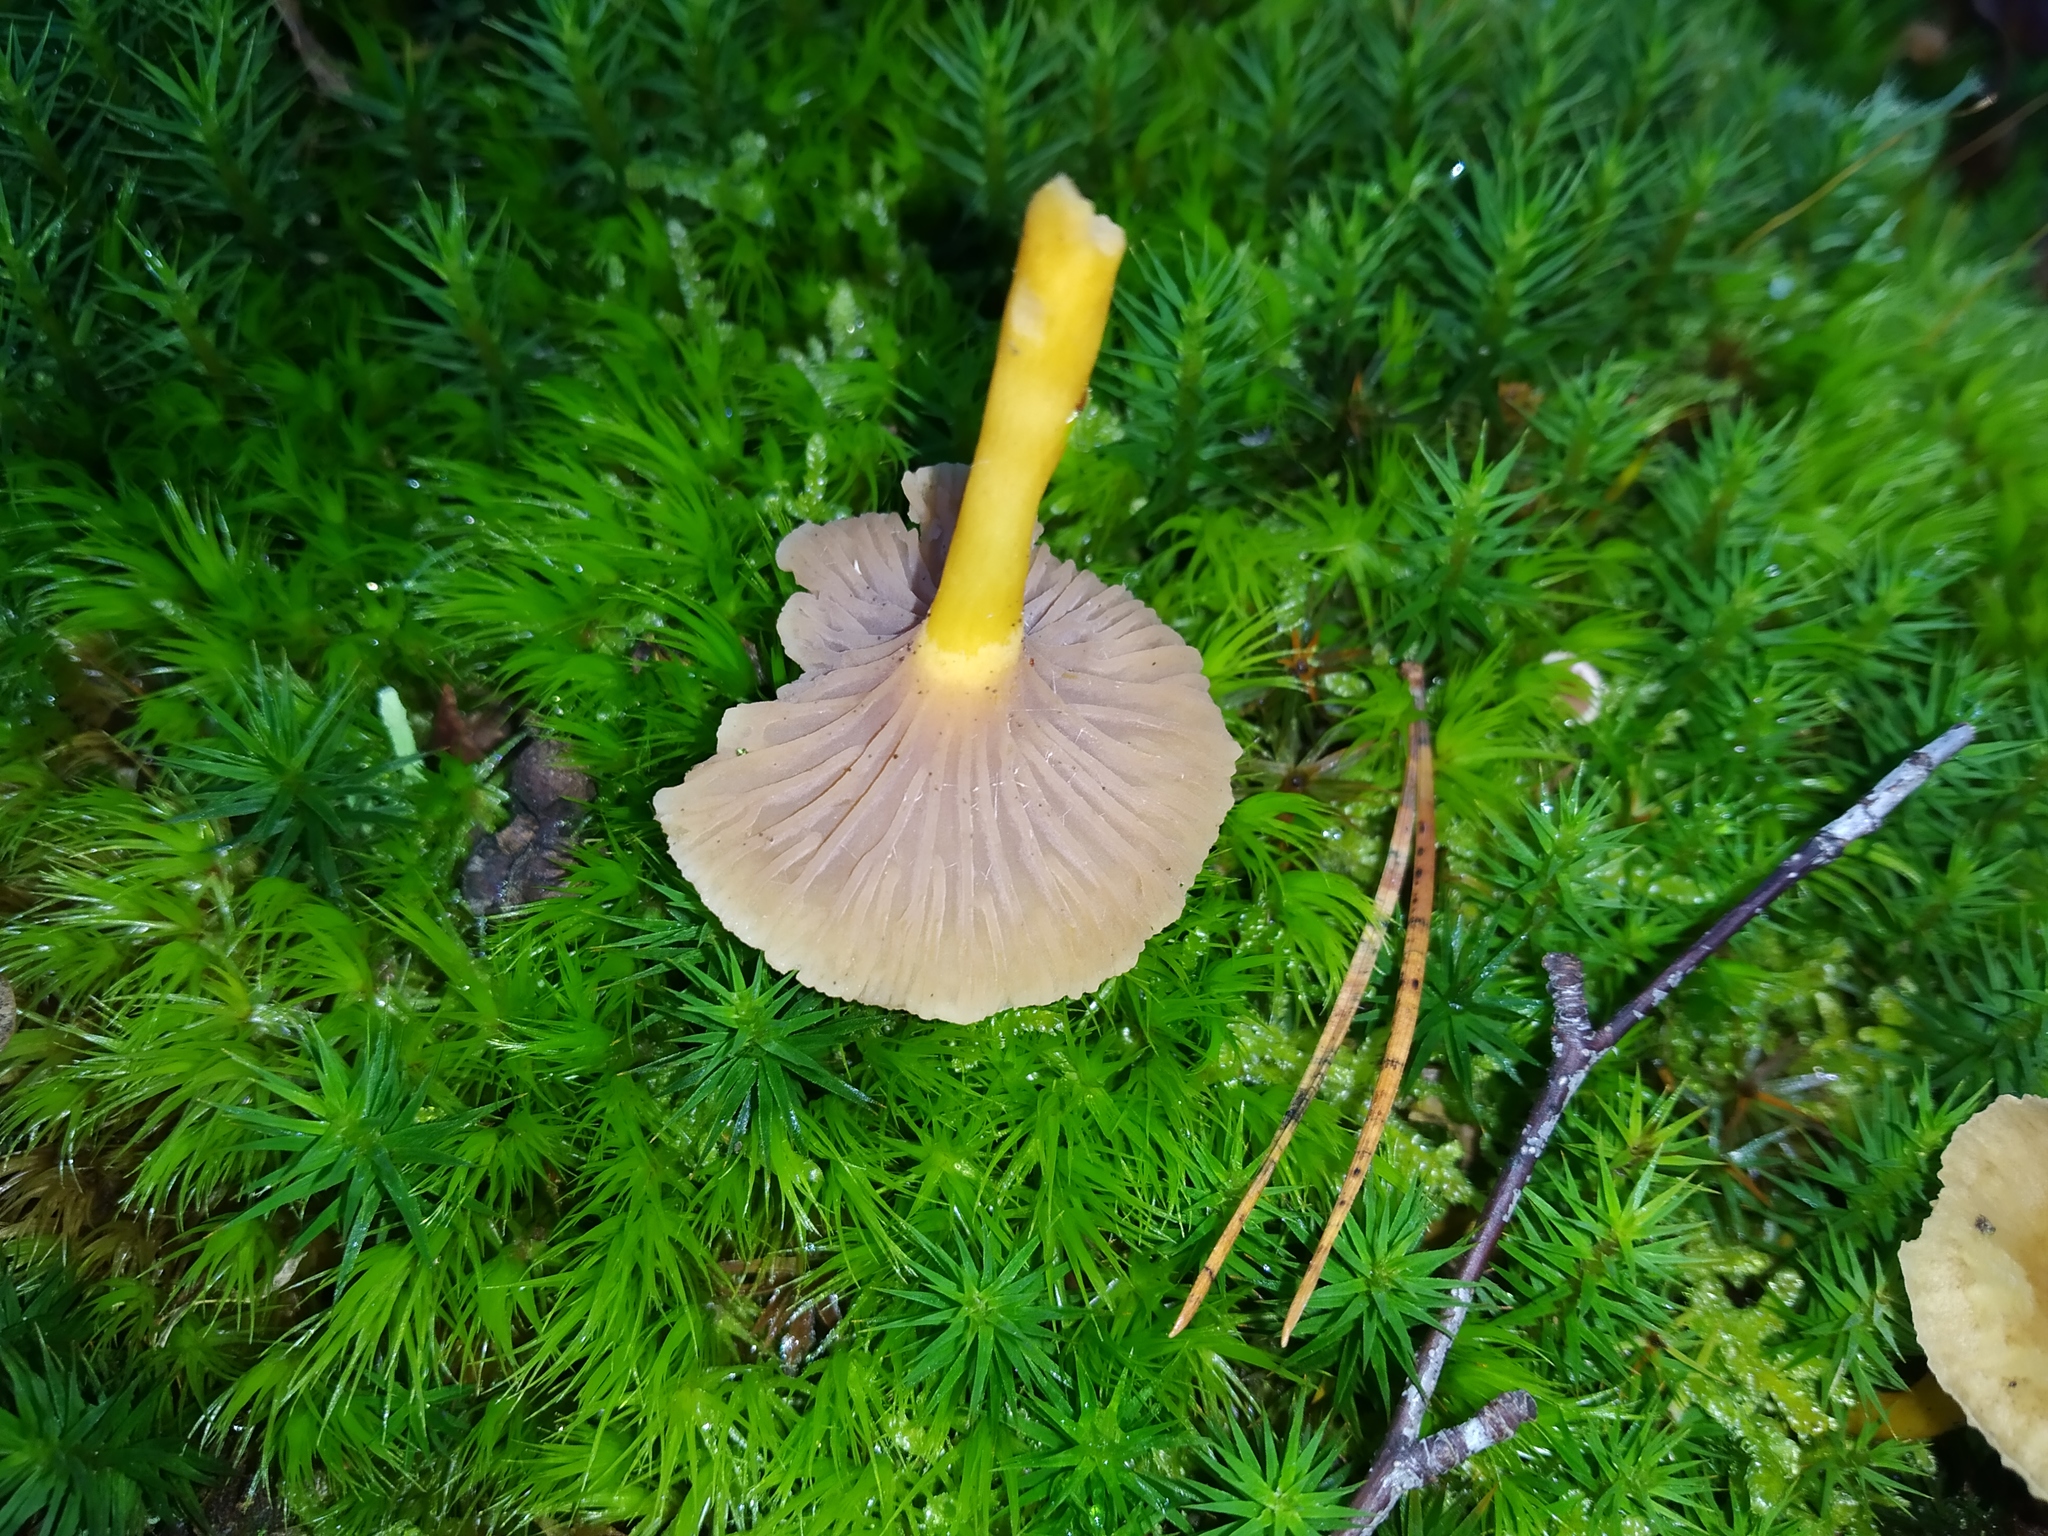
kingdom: Fungi
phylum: Basidiomycota
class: Agaricomycetes
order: Cantharellales
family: Hydnaceae
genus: Craterellus
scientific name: Craterellus tubaeformis
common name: Yellowfoot
